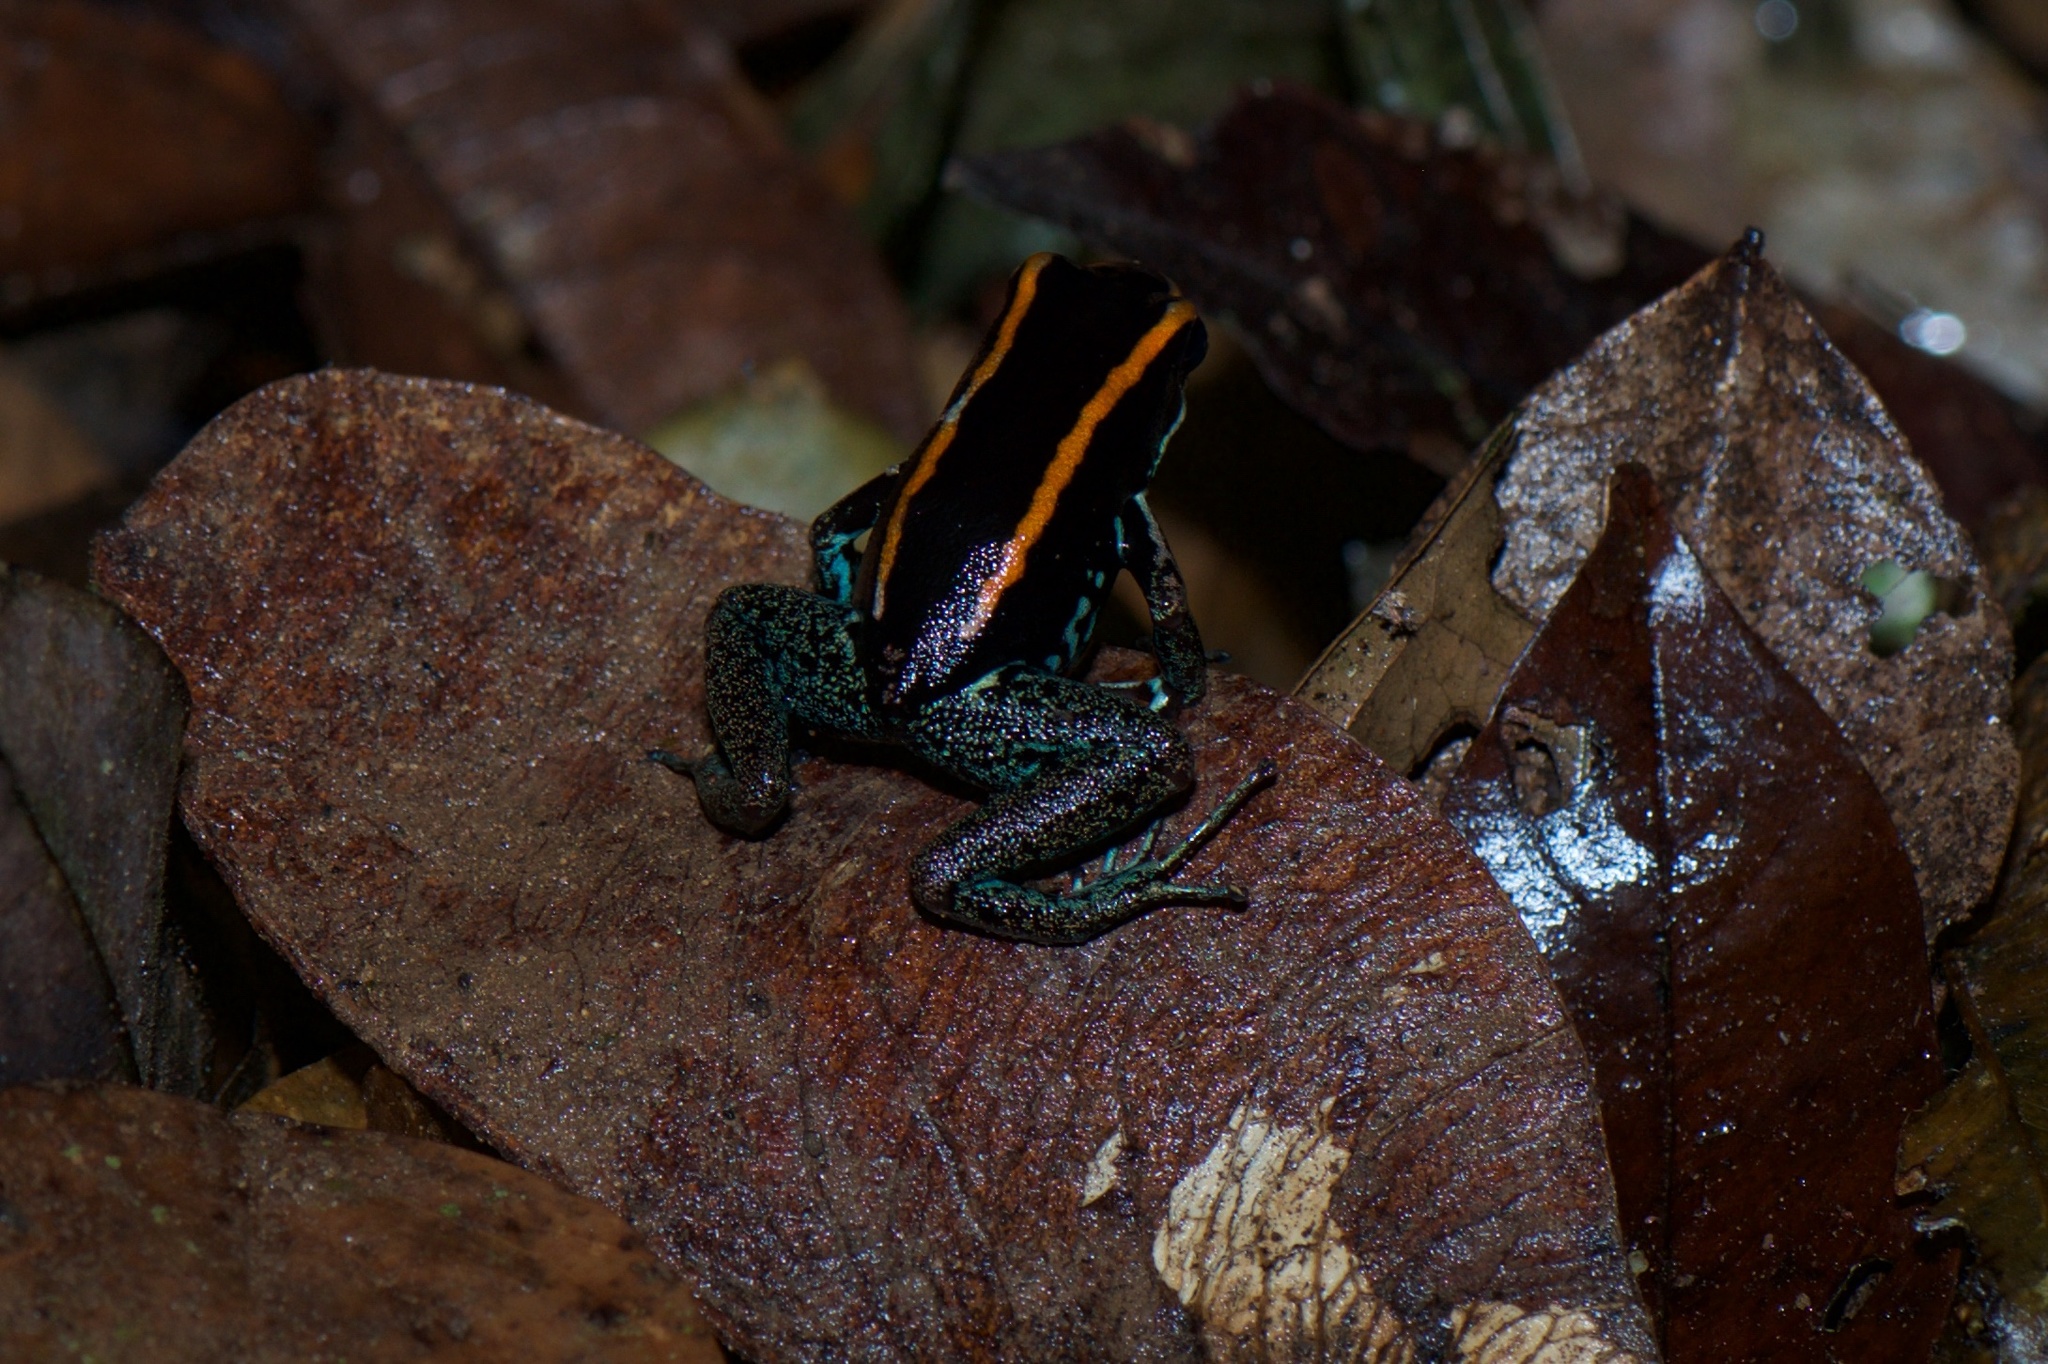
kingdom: Animalia
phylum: Chordata
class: Amphibia
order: Anura
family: Dendrobatidae
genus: Phyllobates
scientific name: Phyllobates vittatus
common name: Golfodulcean poison frog
